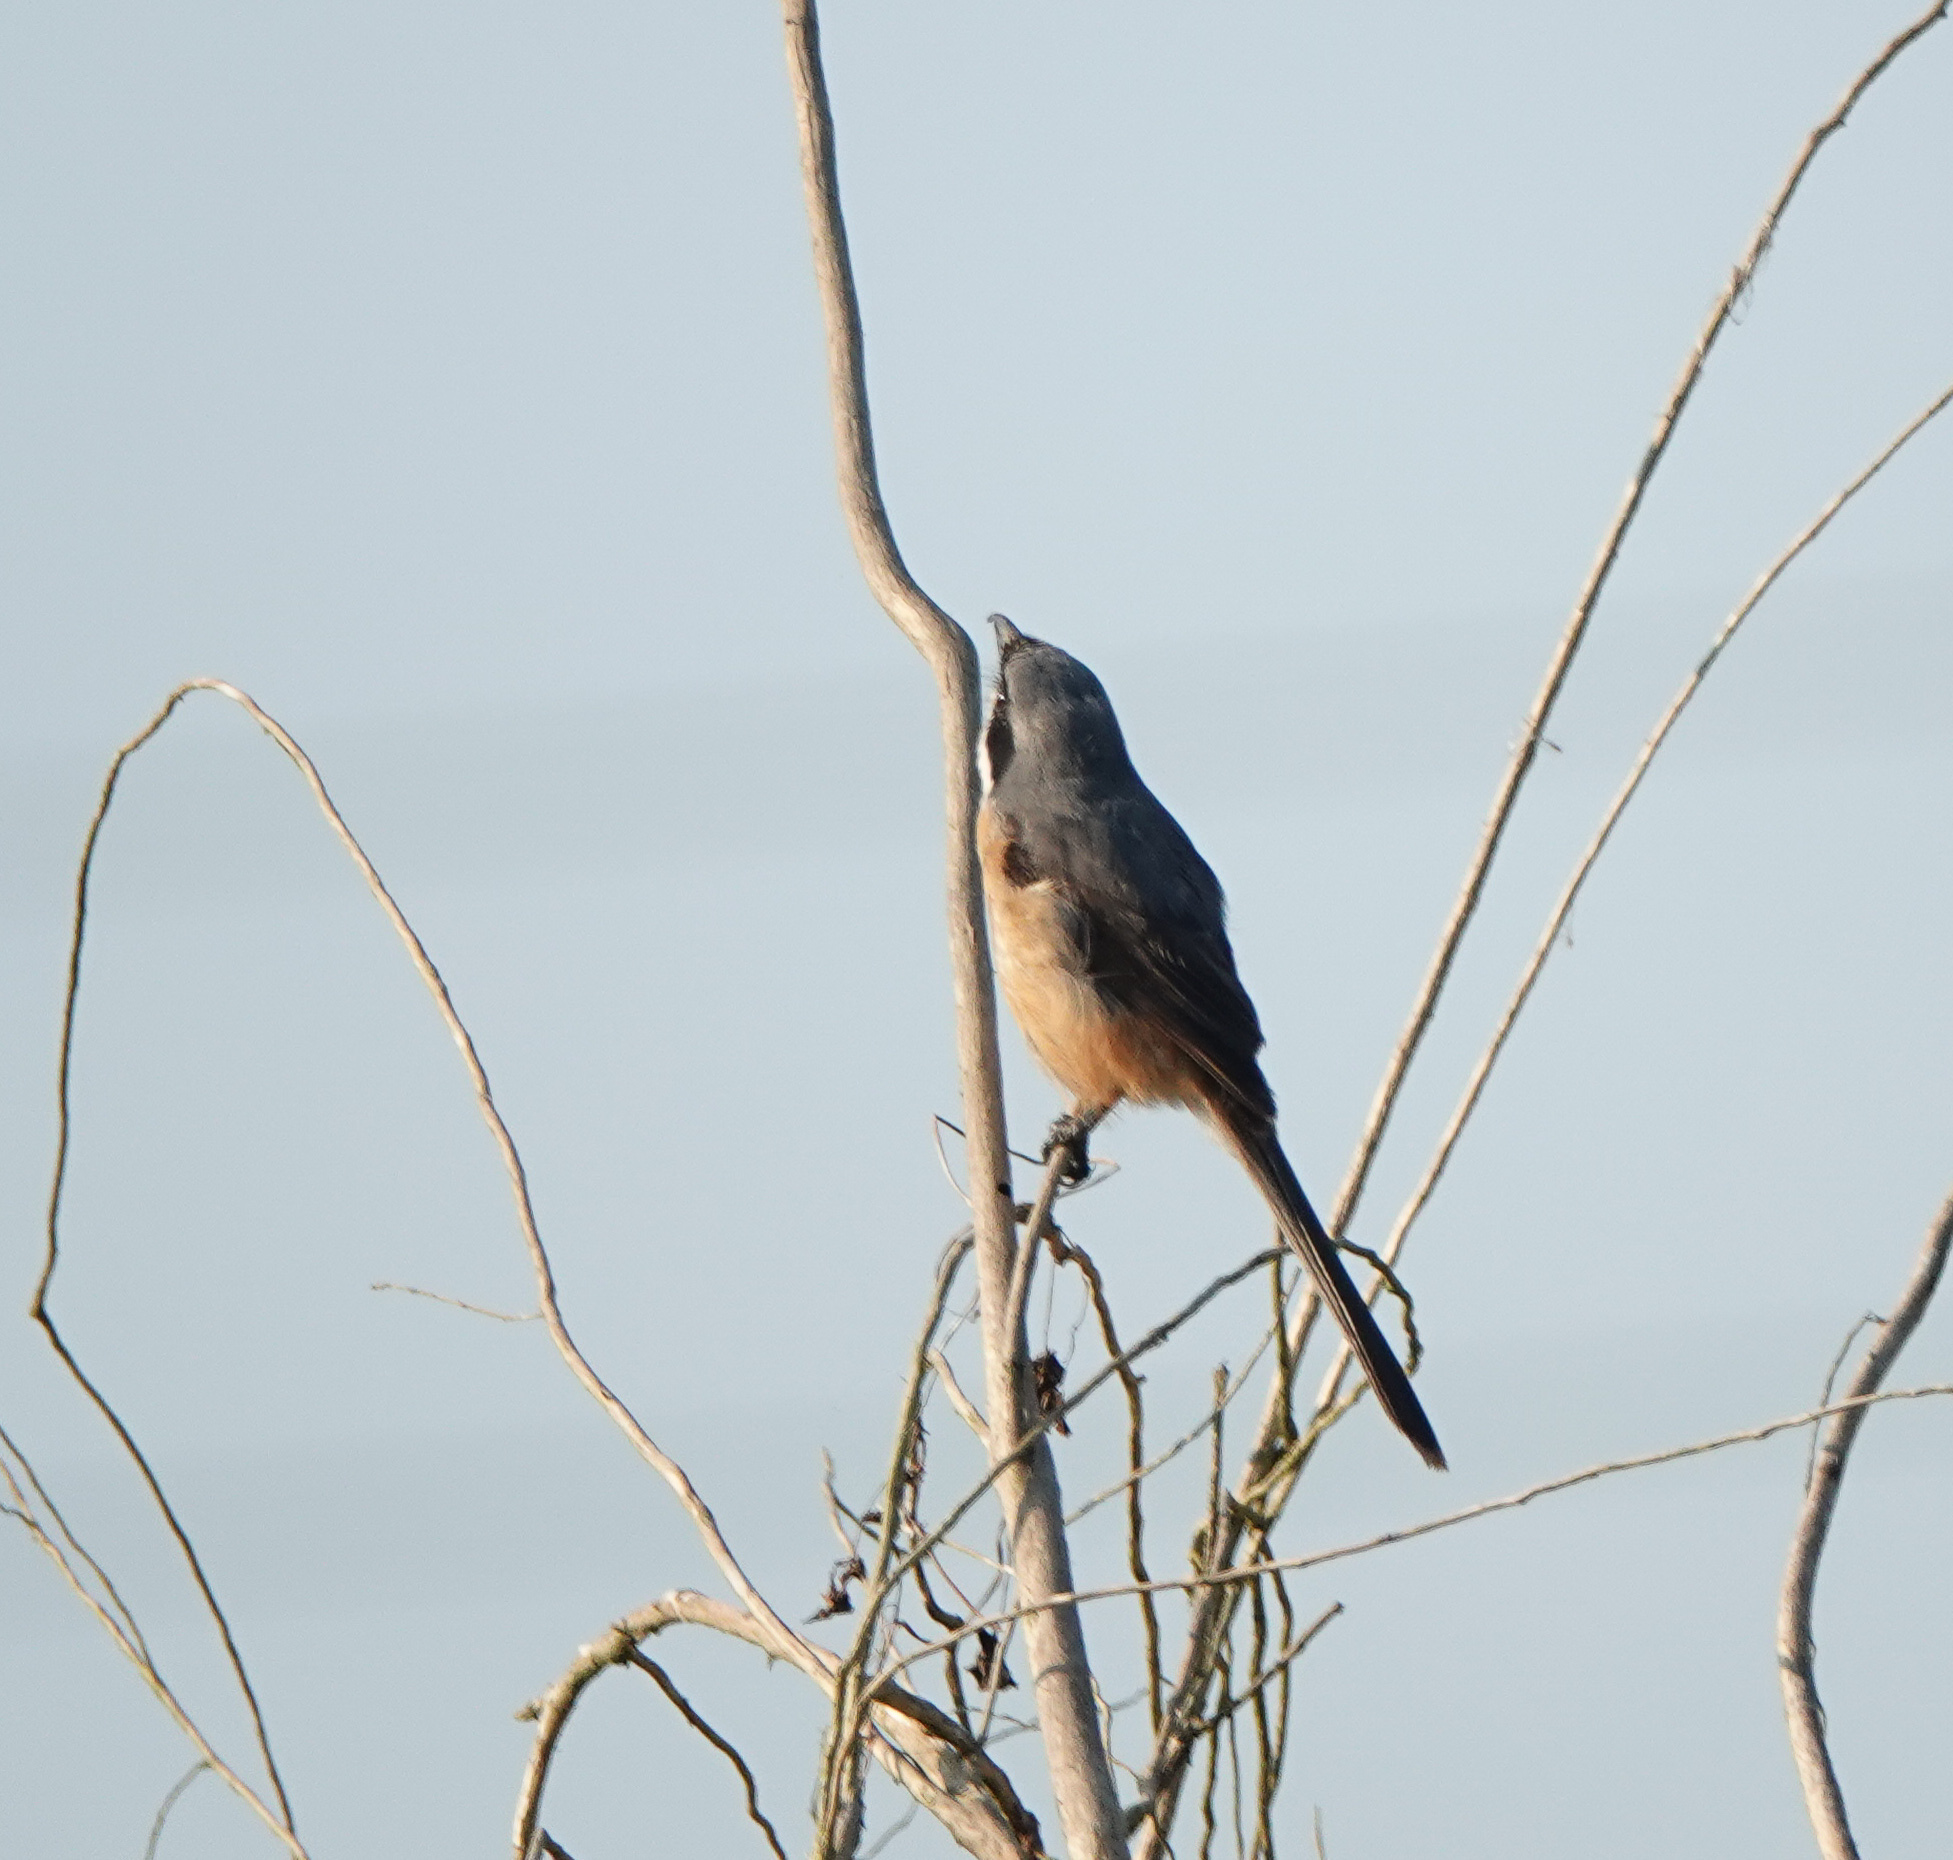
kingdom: Animalia
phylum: Chordata
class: Aves
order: Passeriformes
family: Laniidae
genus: Lanius
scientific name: Lanius tephronotus
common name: Grey-backed shrike
